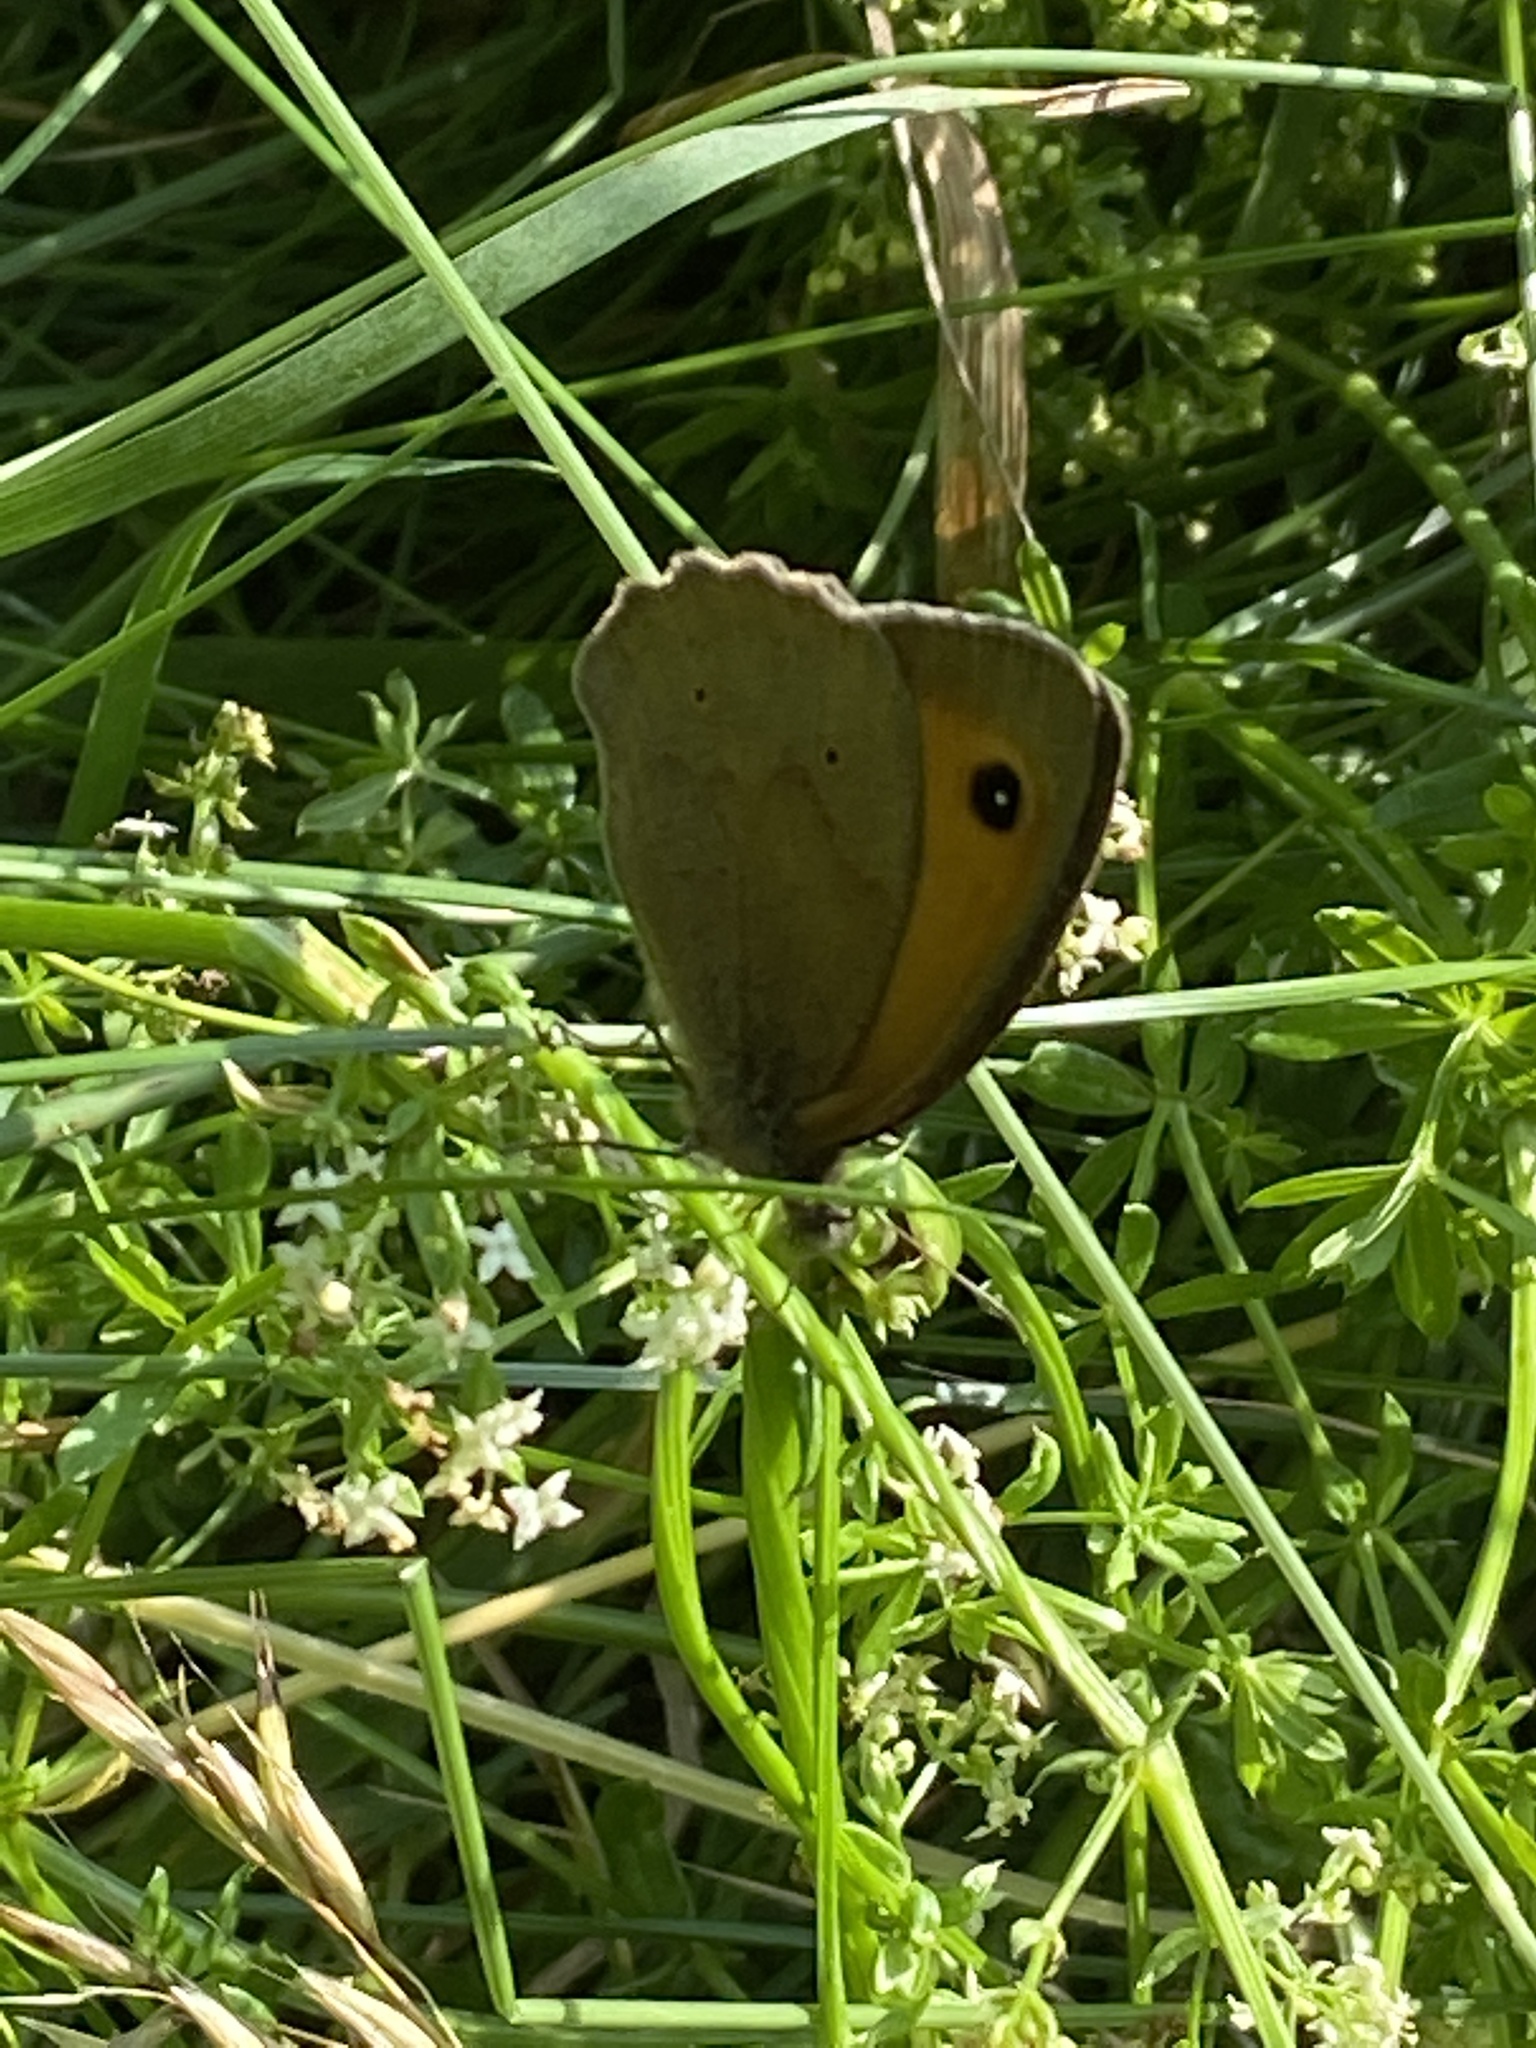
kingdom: Animalia
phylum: Arthropoda
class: Insecta
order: Lepidoptera
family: Nymphalidae
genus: Maniola
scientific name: Maniola jurtina
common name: Meadow brown
